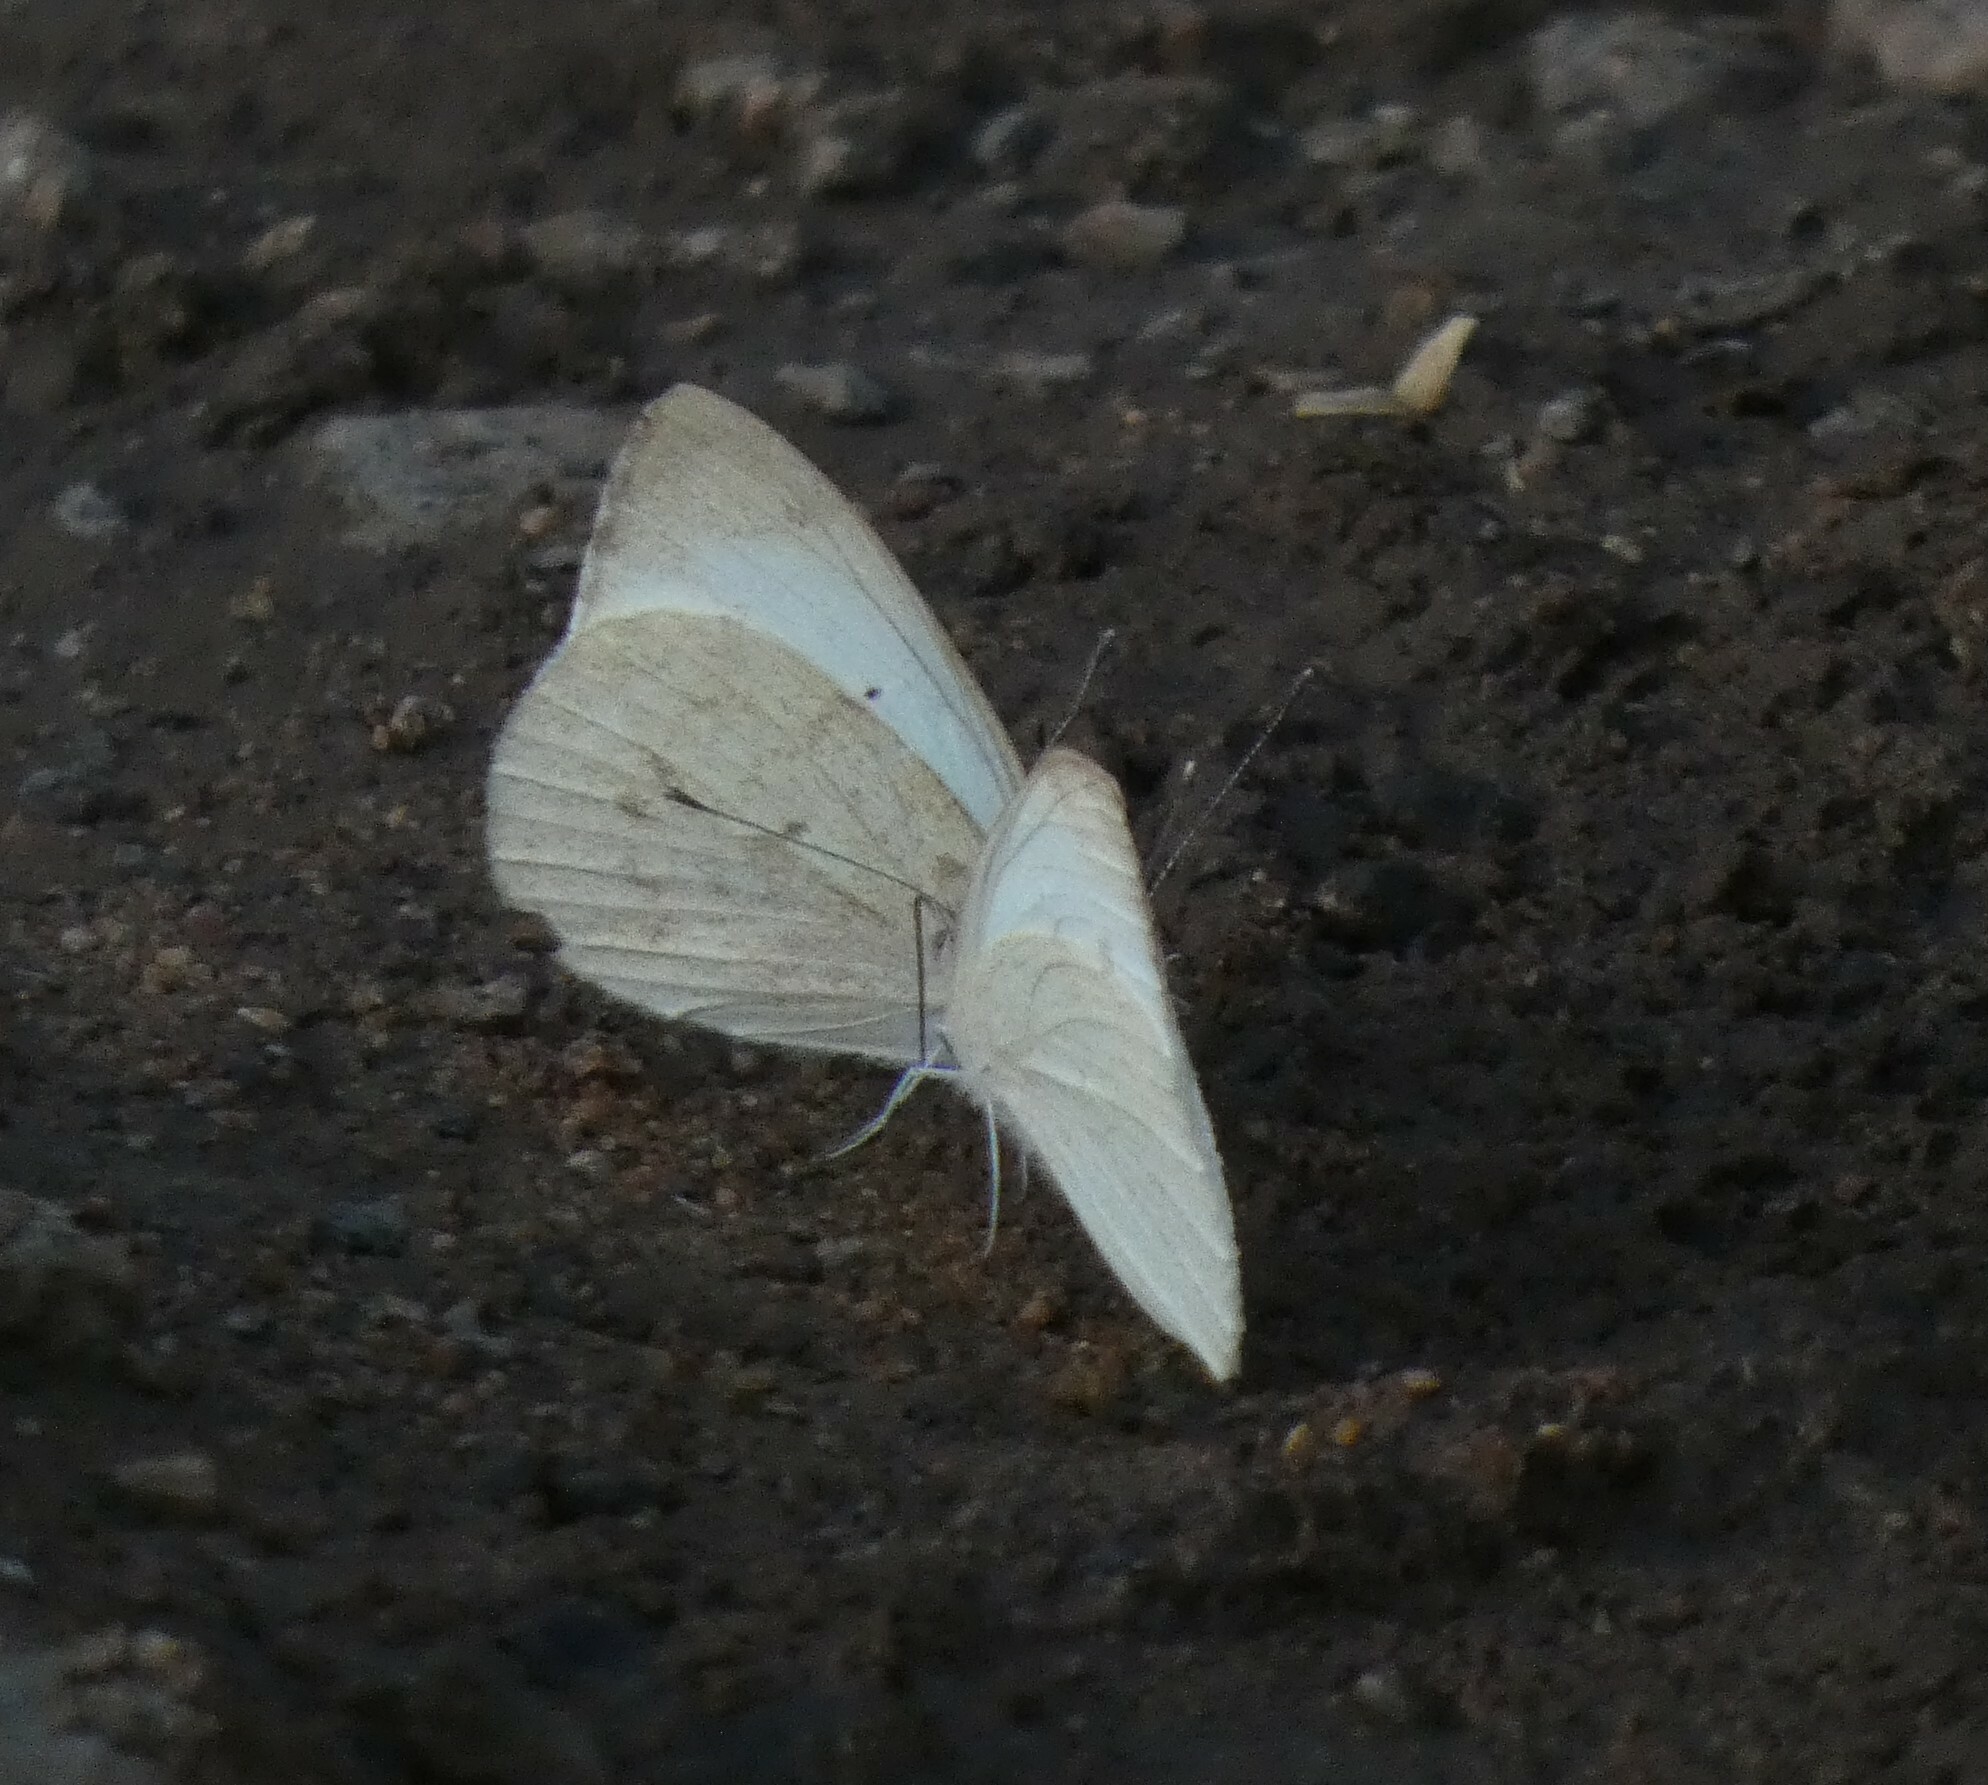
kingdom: Animalia
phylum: Arthropoda
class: Insecta
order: Lepidoptera
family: Pieridae
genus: Teracolus
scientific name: Teracolus agoye
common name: Speckled sulphur tip
